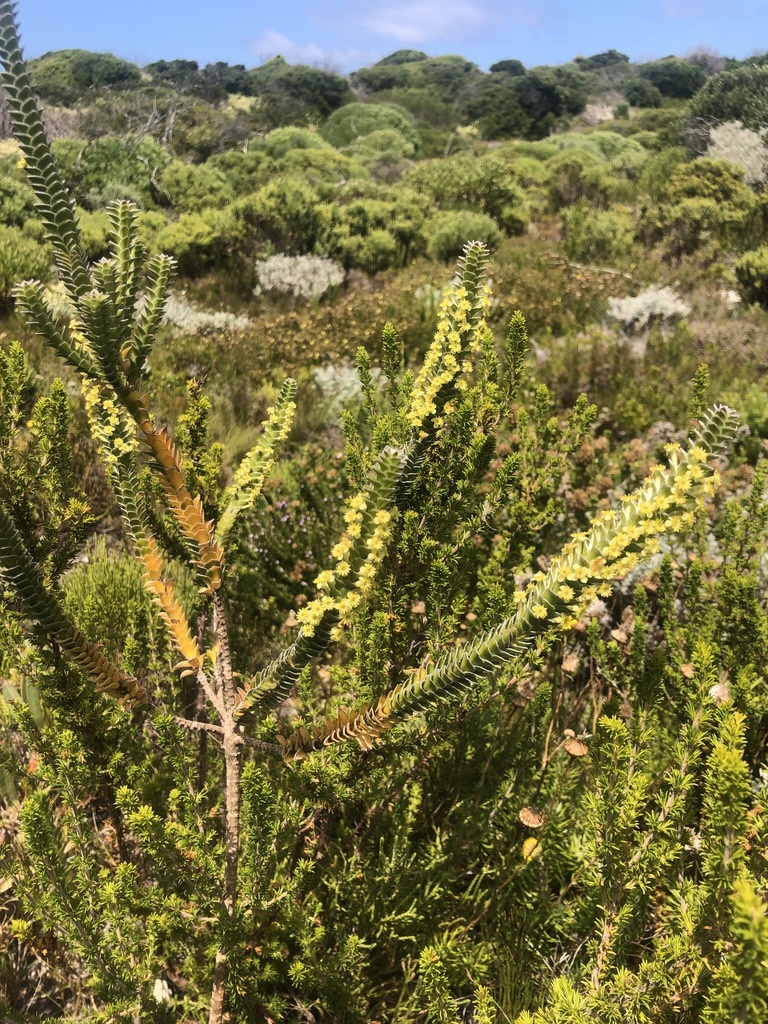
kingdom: Plantae
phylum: Tracheophyta
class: Magnoliopsida
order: Malvales
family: Thymelaeaceae
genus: Struthiola
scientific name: Struthiola argentea
